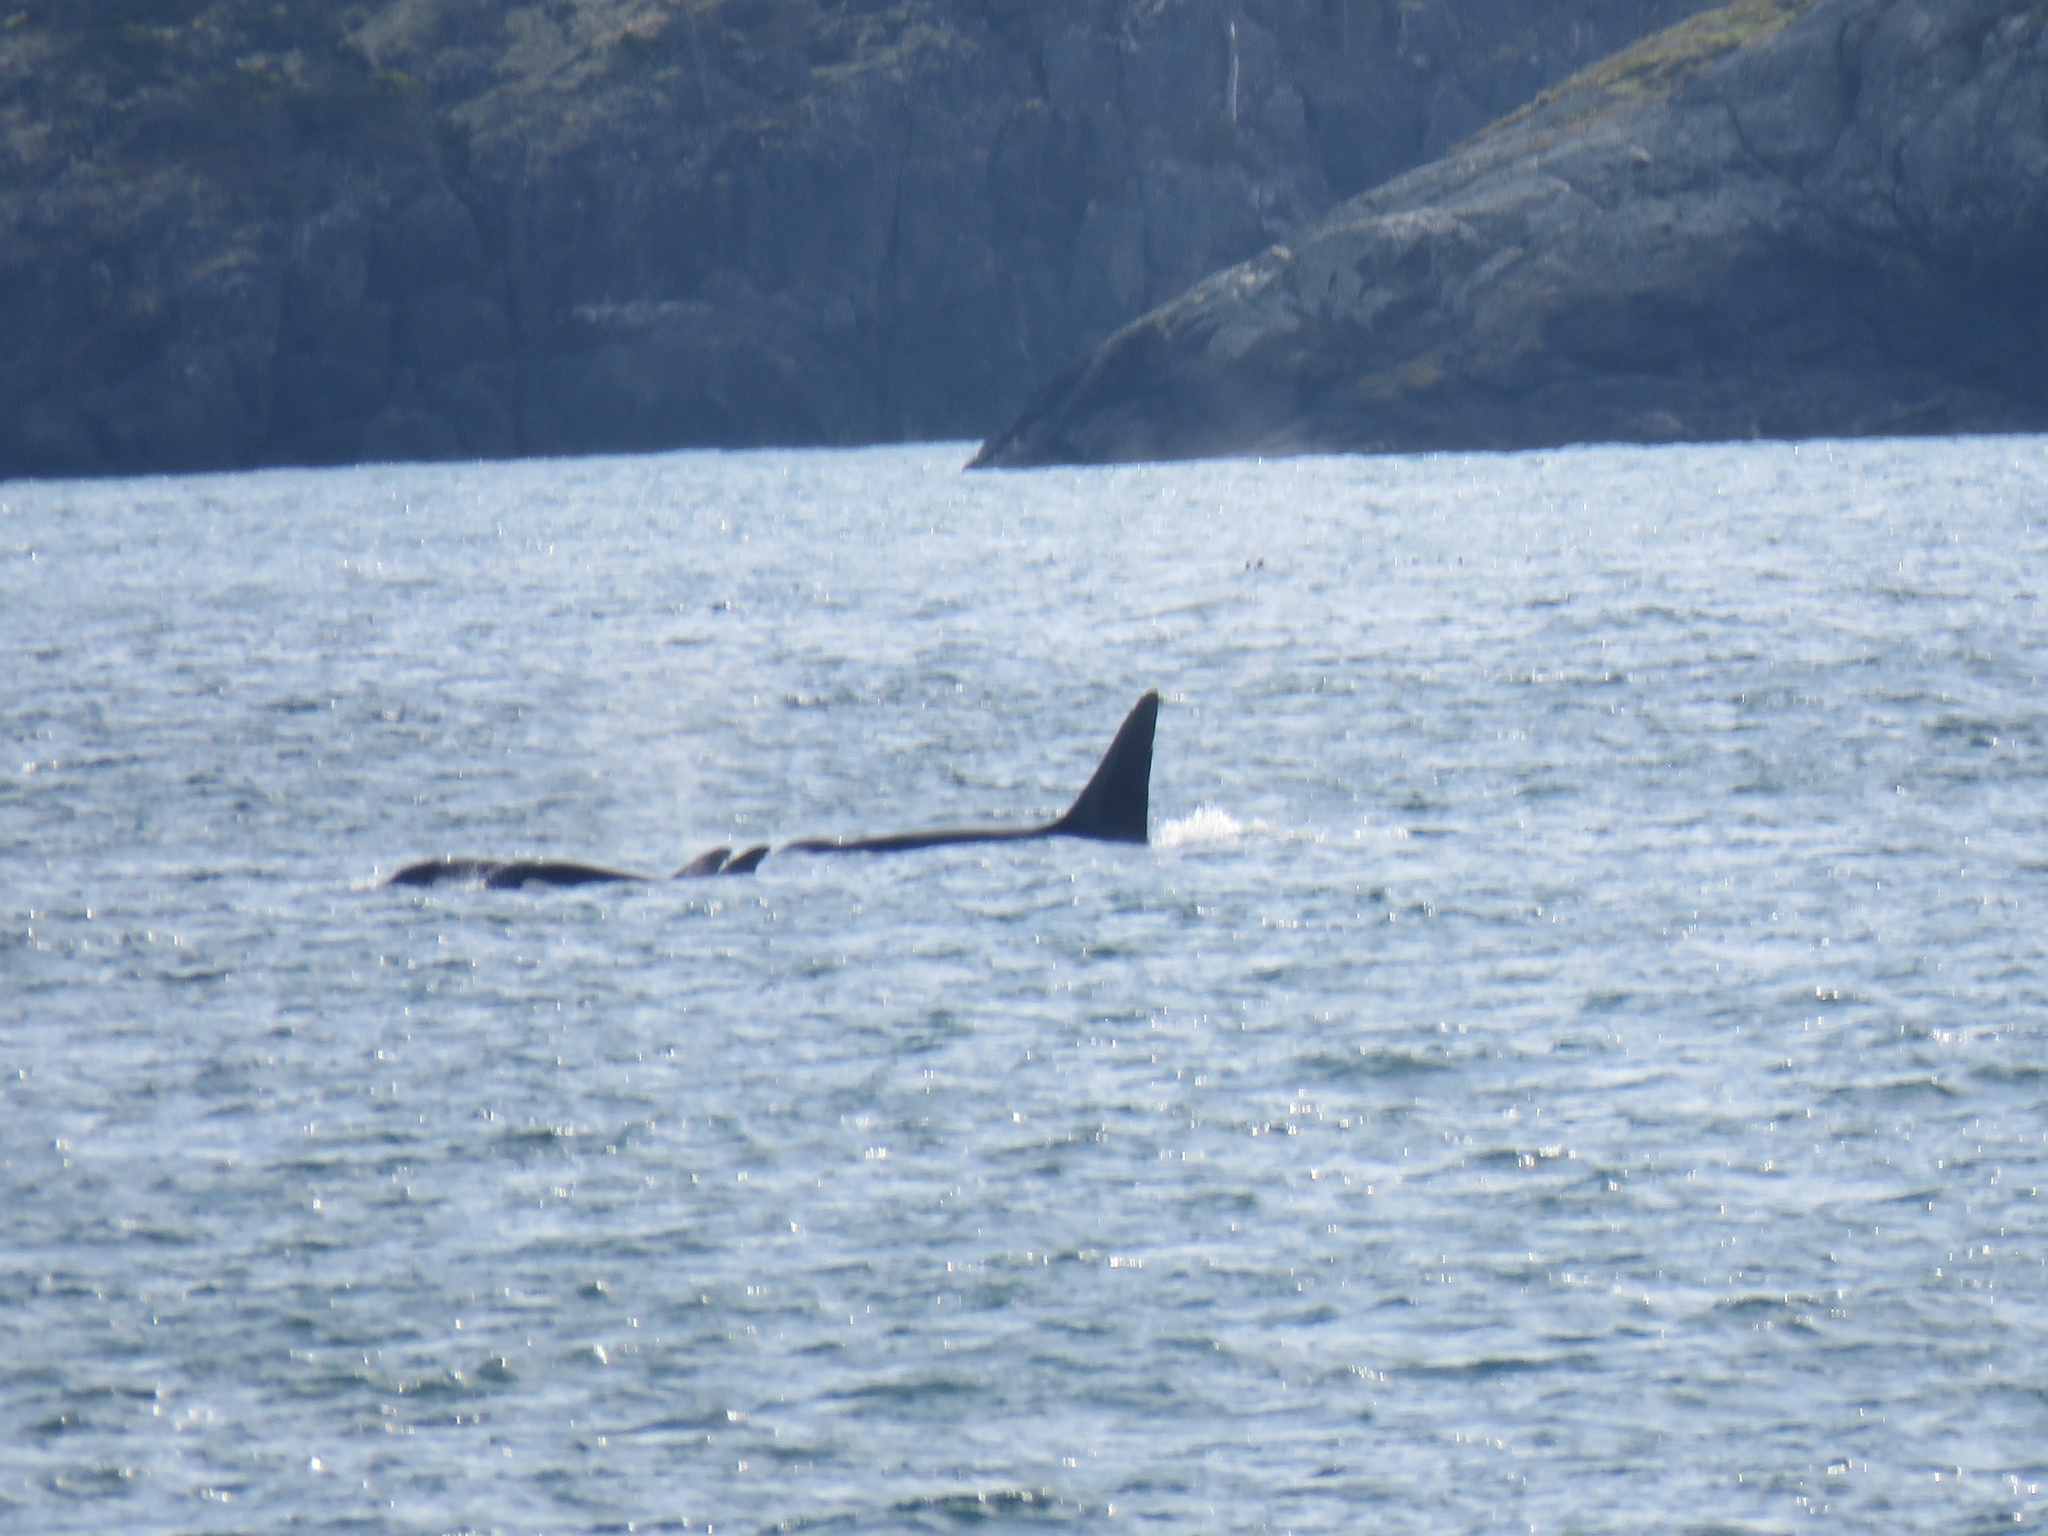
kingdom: Animalia
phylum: Chordata
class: Mammalia
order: Cetacea
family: Delphinidae
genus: Orcinus
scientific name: Orcinus orca
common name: Killer whale
